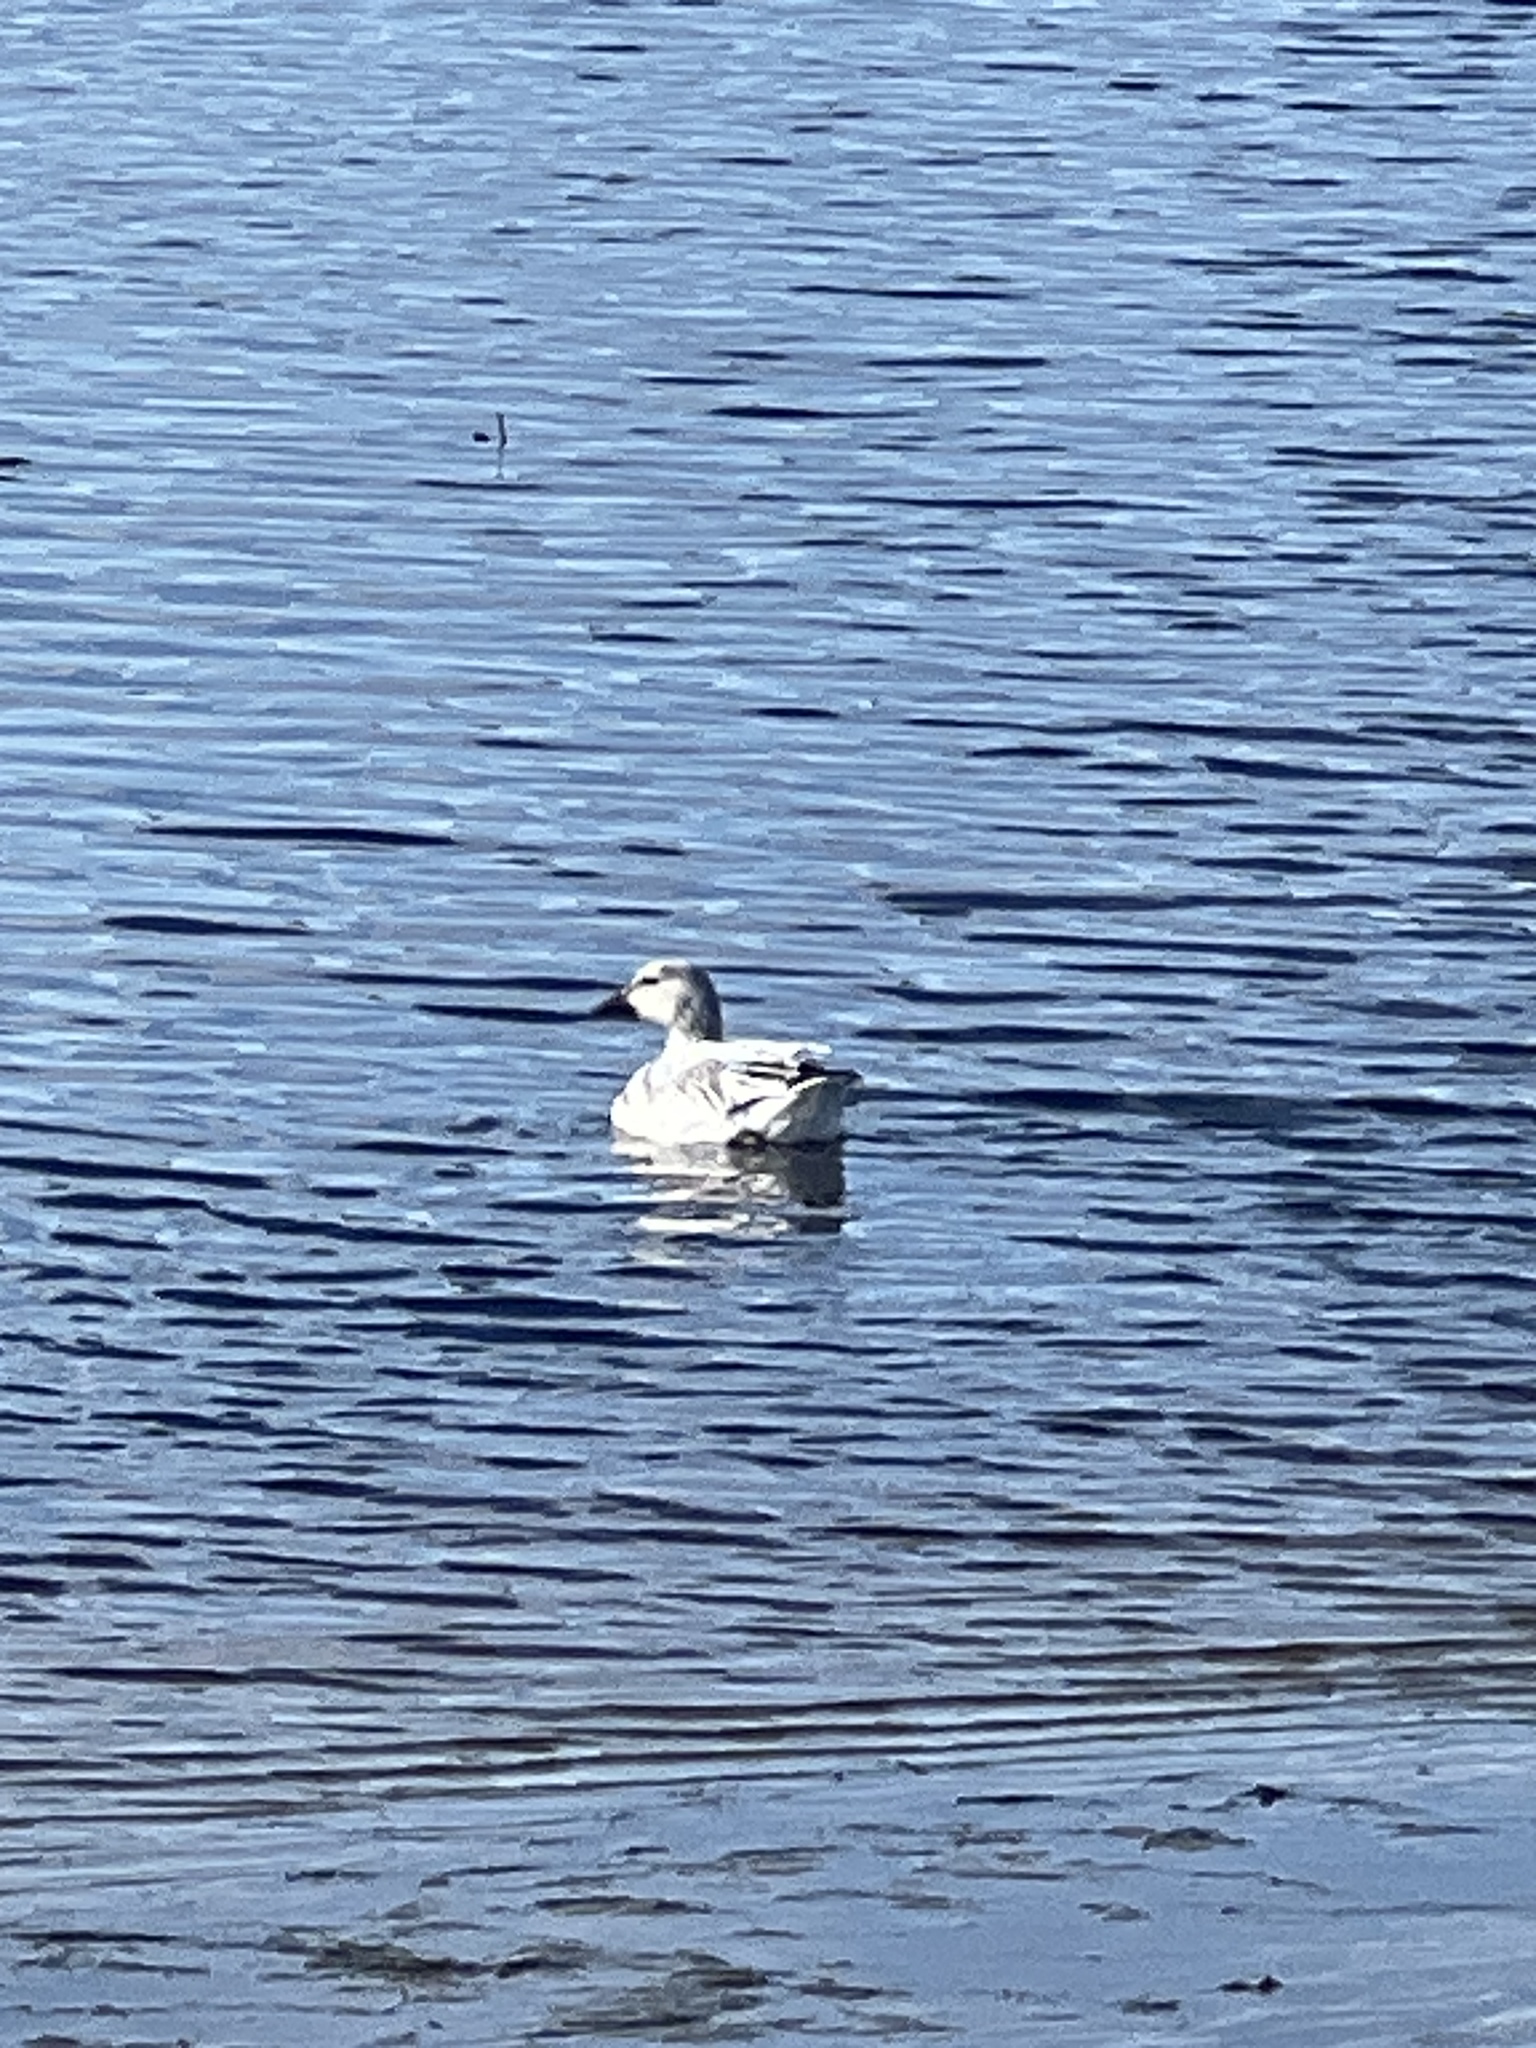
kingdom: Animalia
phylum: Chordata
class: Aves
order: Anseriformes
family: Anatidae
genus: Anser
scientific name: Anser caerulescens
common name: Snow goose
